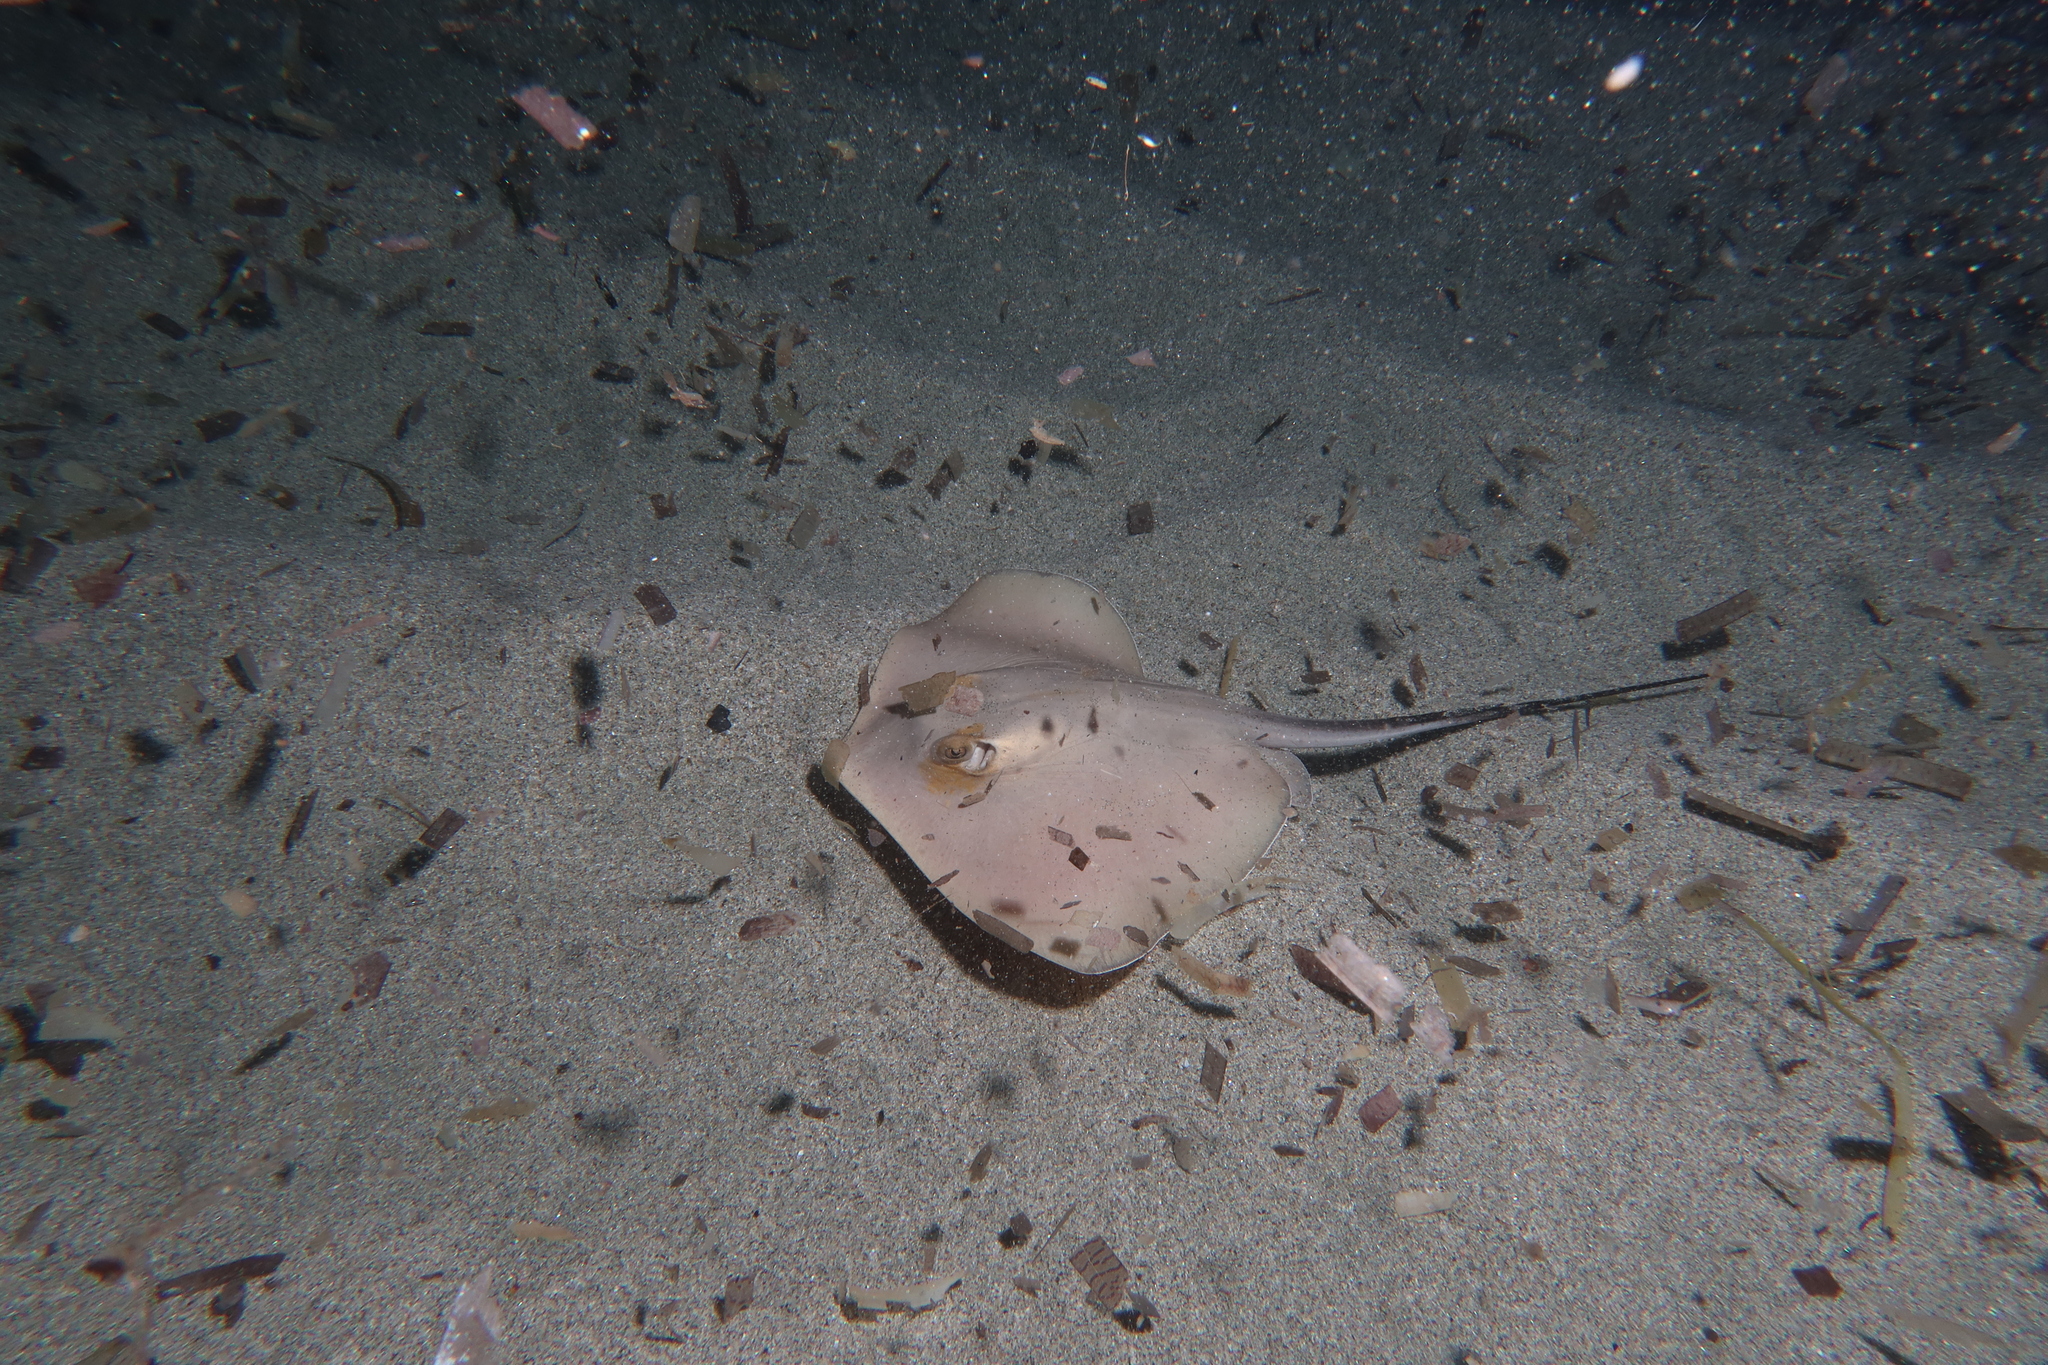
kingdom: Animalia
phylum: Chordata
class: Elasmobranchii
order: Myliobatiformes
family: Dasyatidae
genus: Dasyatis
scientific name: Dasyatis pastinaca
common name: Common stingray
